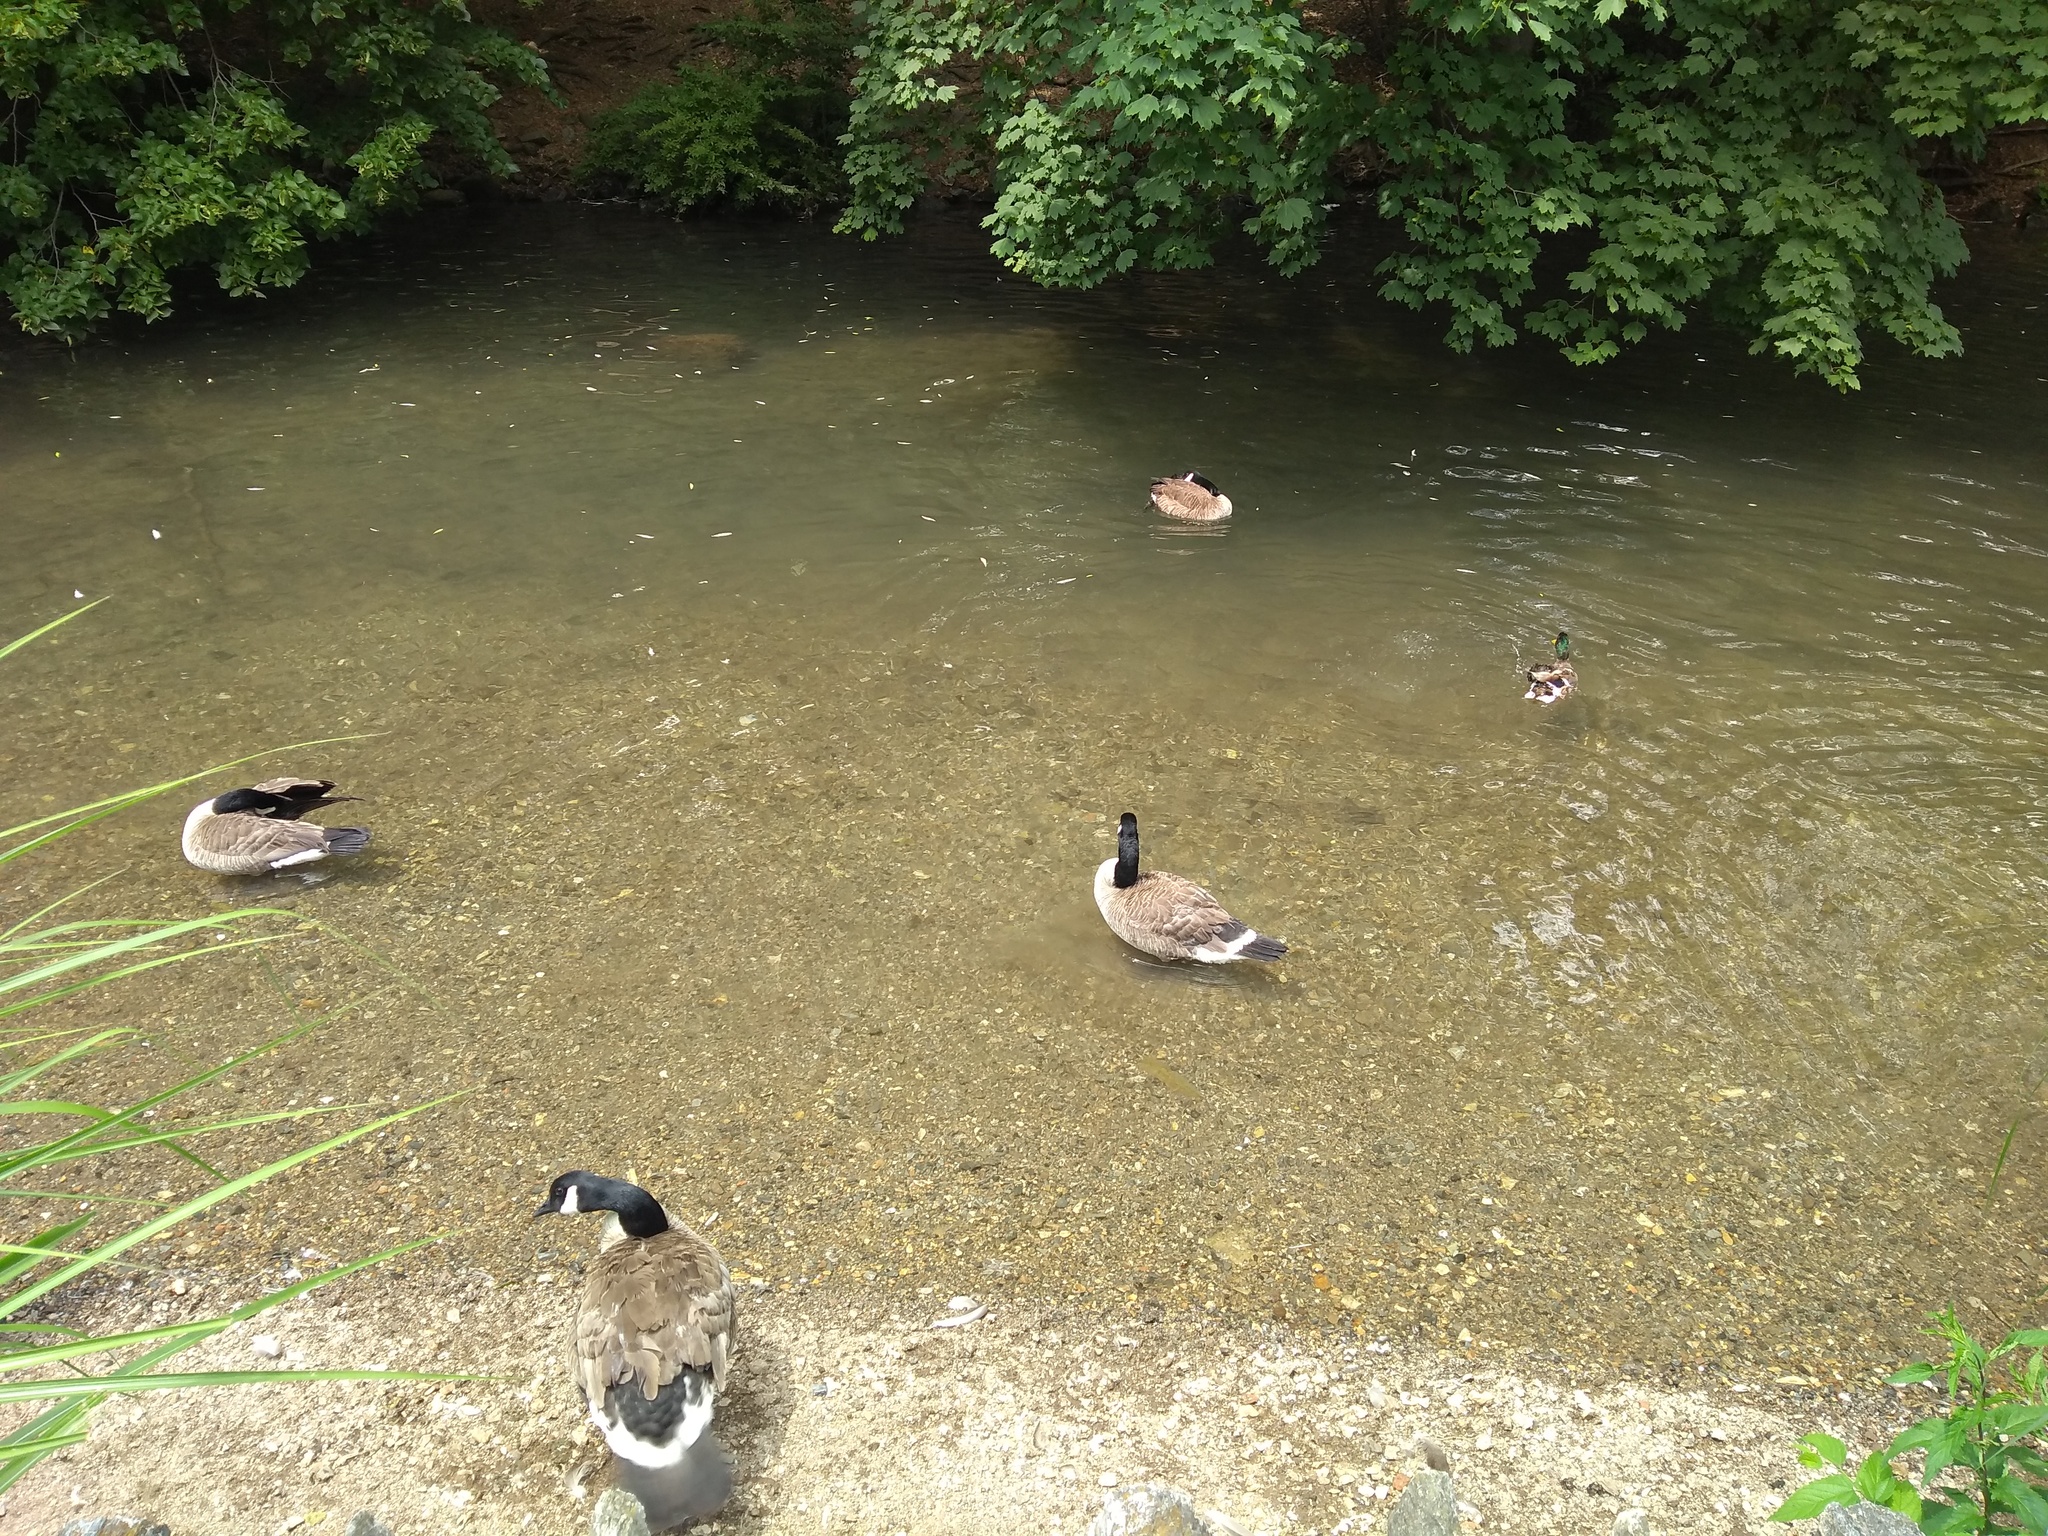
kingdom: Animalia
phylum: Chordata
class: Aves
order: Anseriformes
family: Anatidae
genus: Branta
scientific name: Branta canadensis
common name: Canada goose
